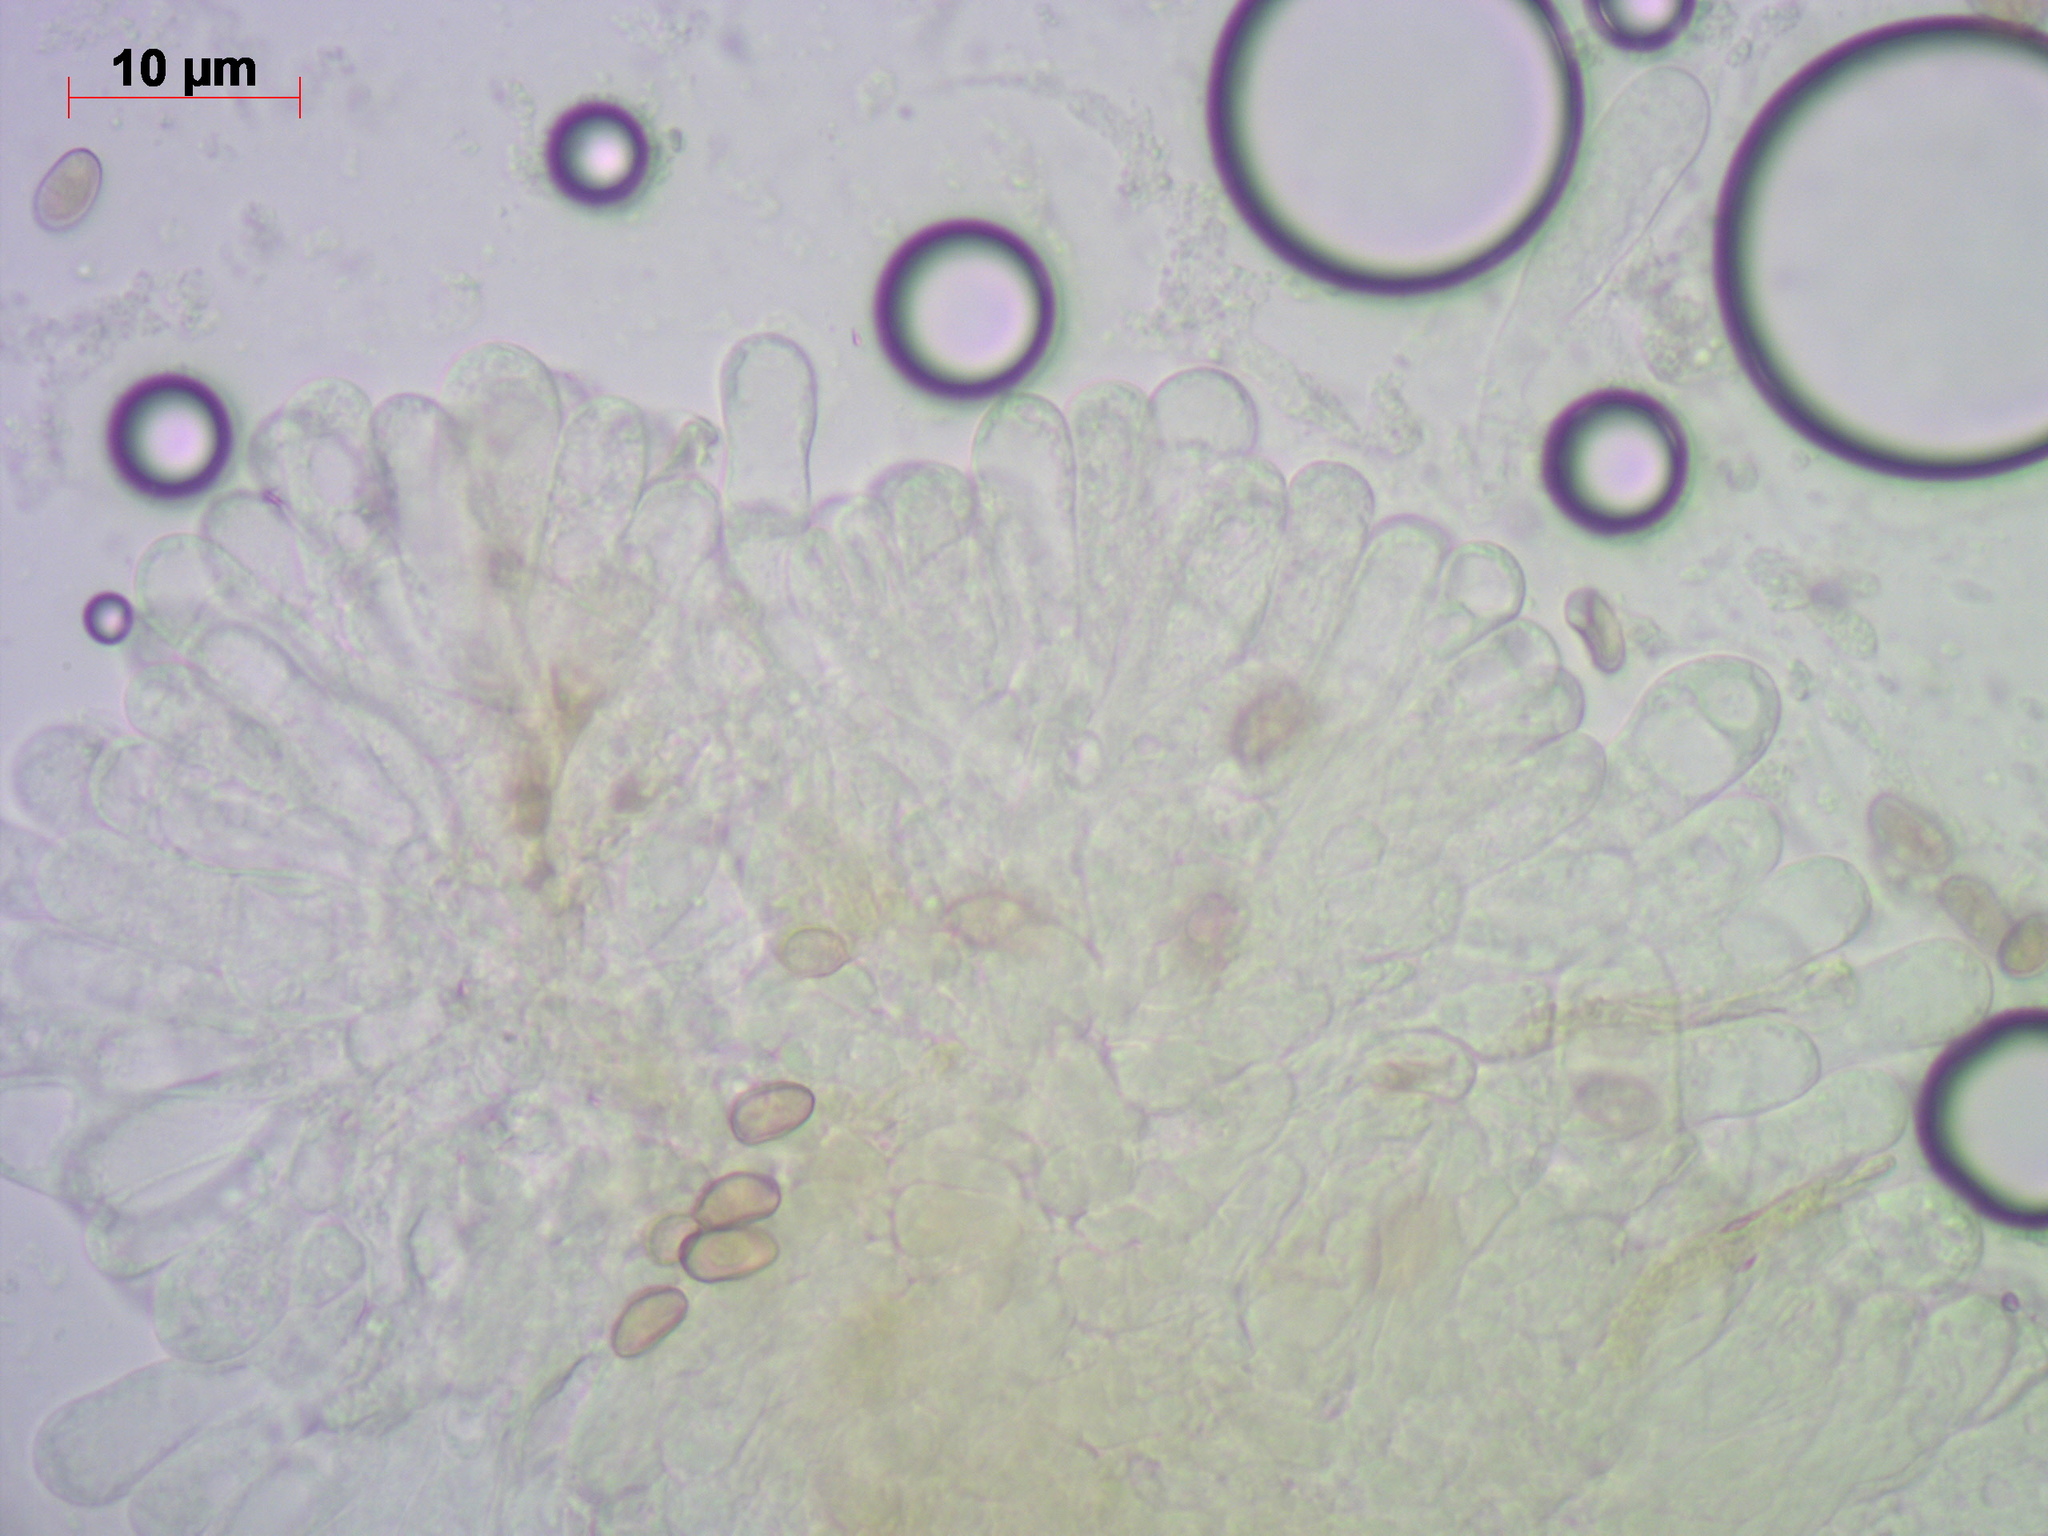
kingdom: Fungi
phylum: Basidiomycota
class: Agaricomycetes
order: Agaricales
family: Inocybaceae
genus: Inosperma
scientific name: Inosperma cookei
